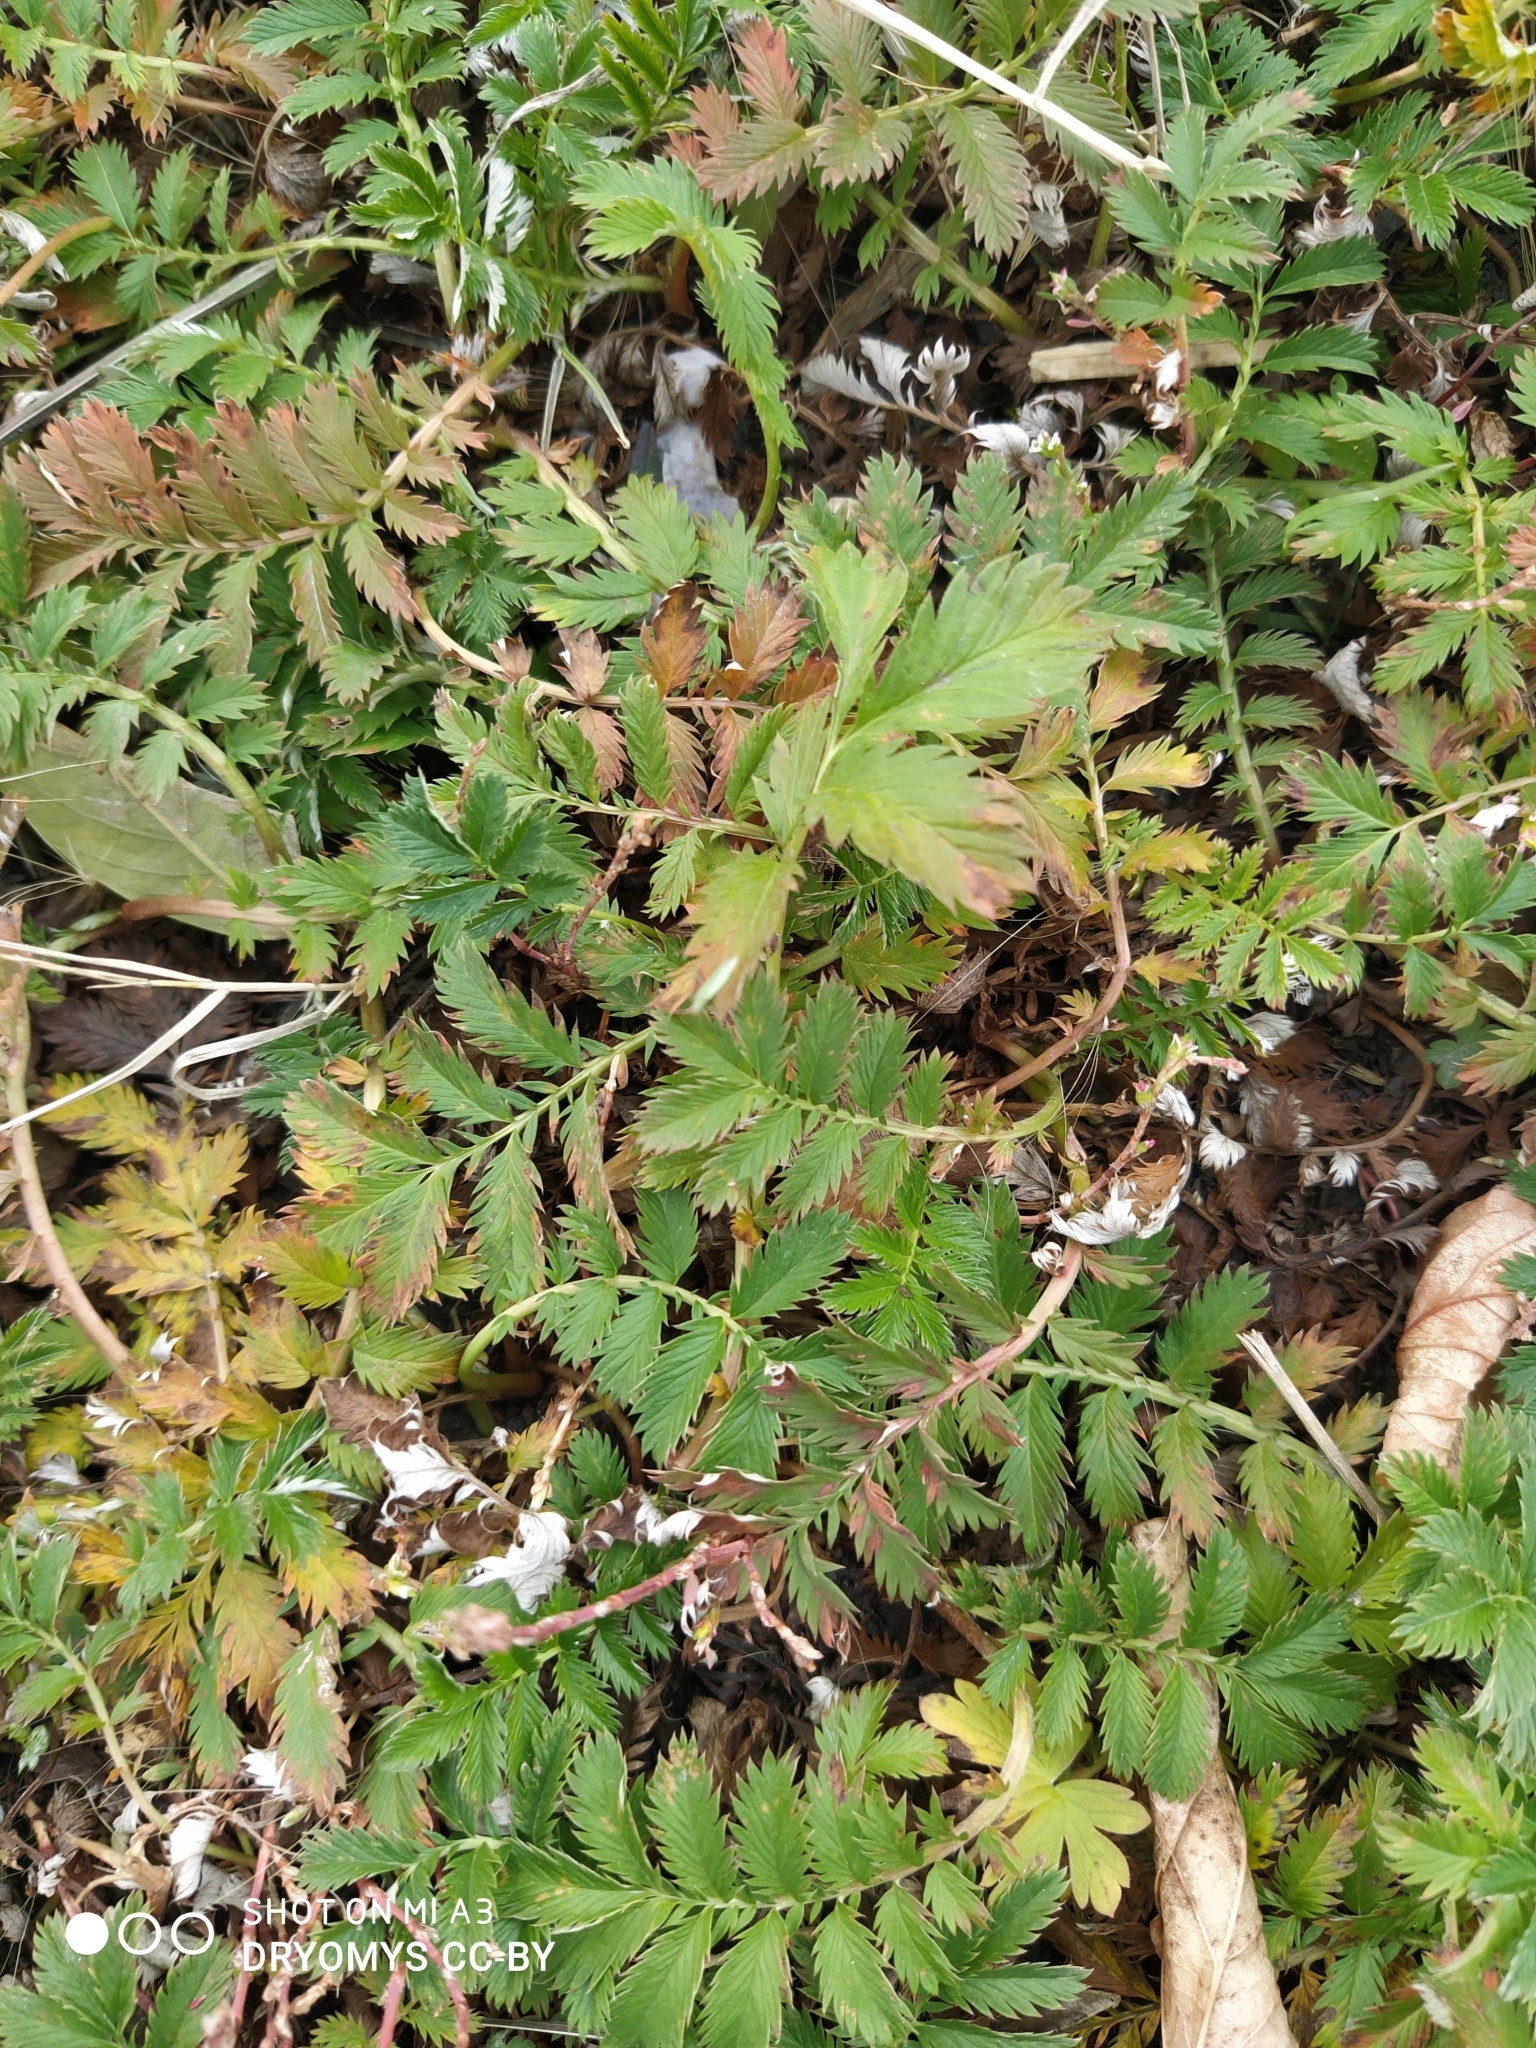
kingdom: Plantae
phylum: Tracheophyta
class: Magnoliopsida
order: Rosales
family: Rosaceae
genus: Argentina
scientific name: Argentina anserina
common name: Common silverweed
